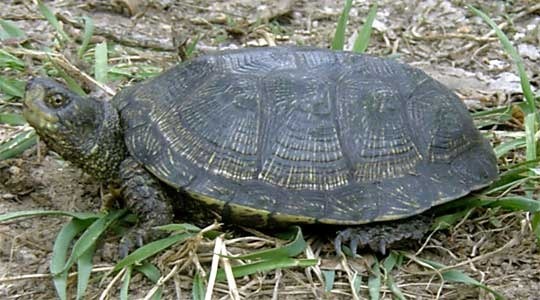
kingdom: Animalia
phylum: Chordata
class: Testudines
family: Emydidae
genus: Emys
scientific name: Emys orbicularis
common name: European pond turtle
